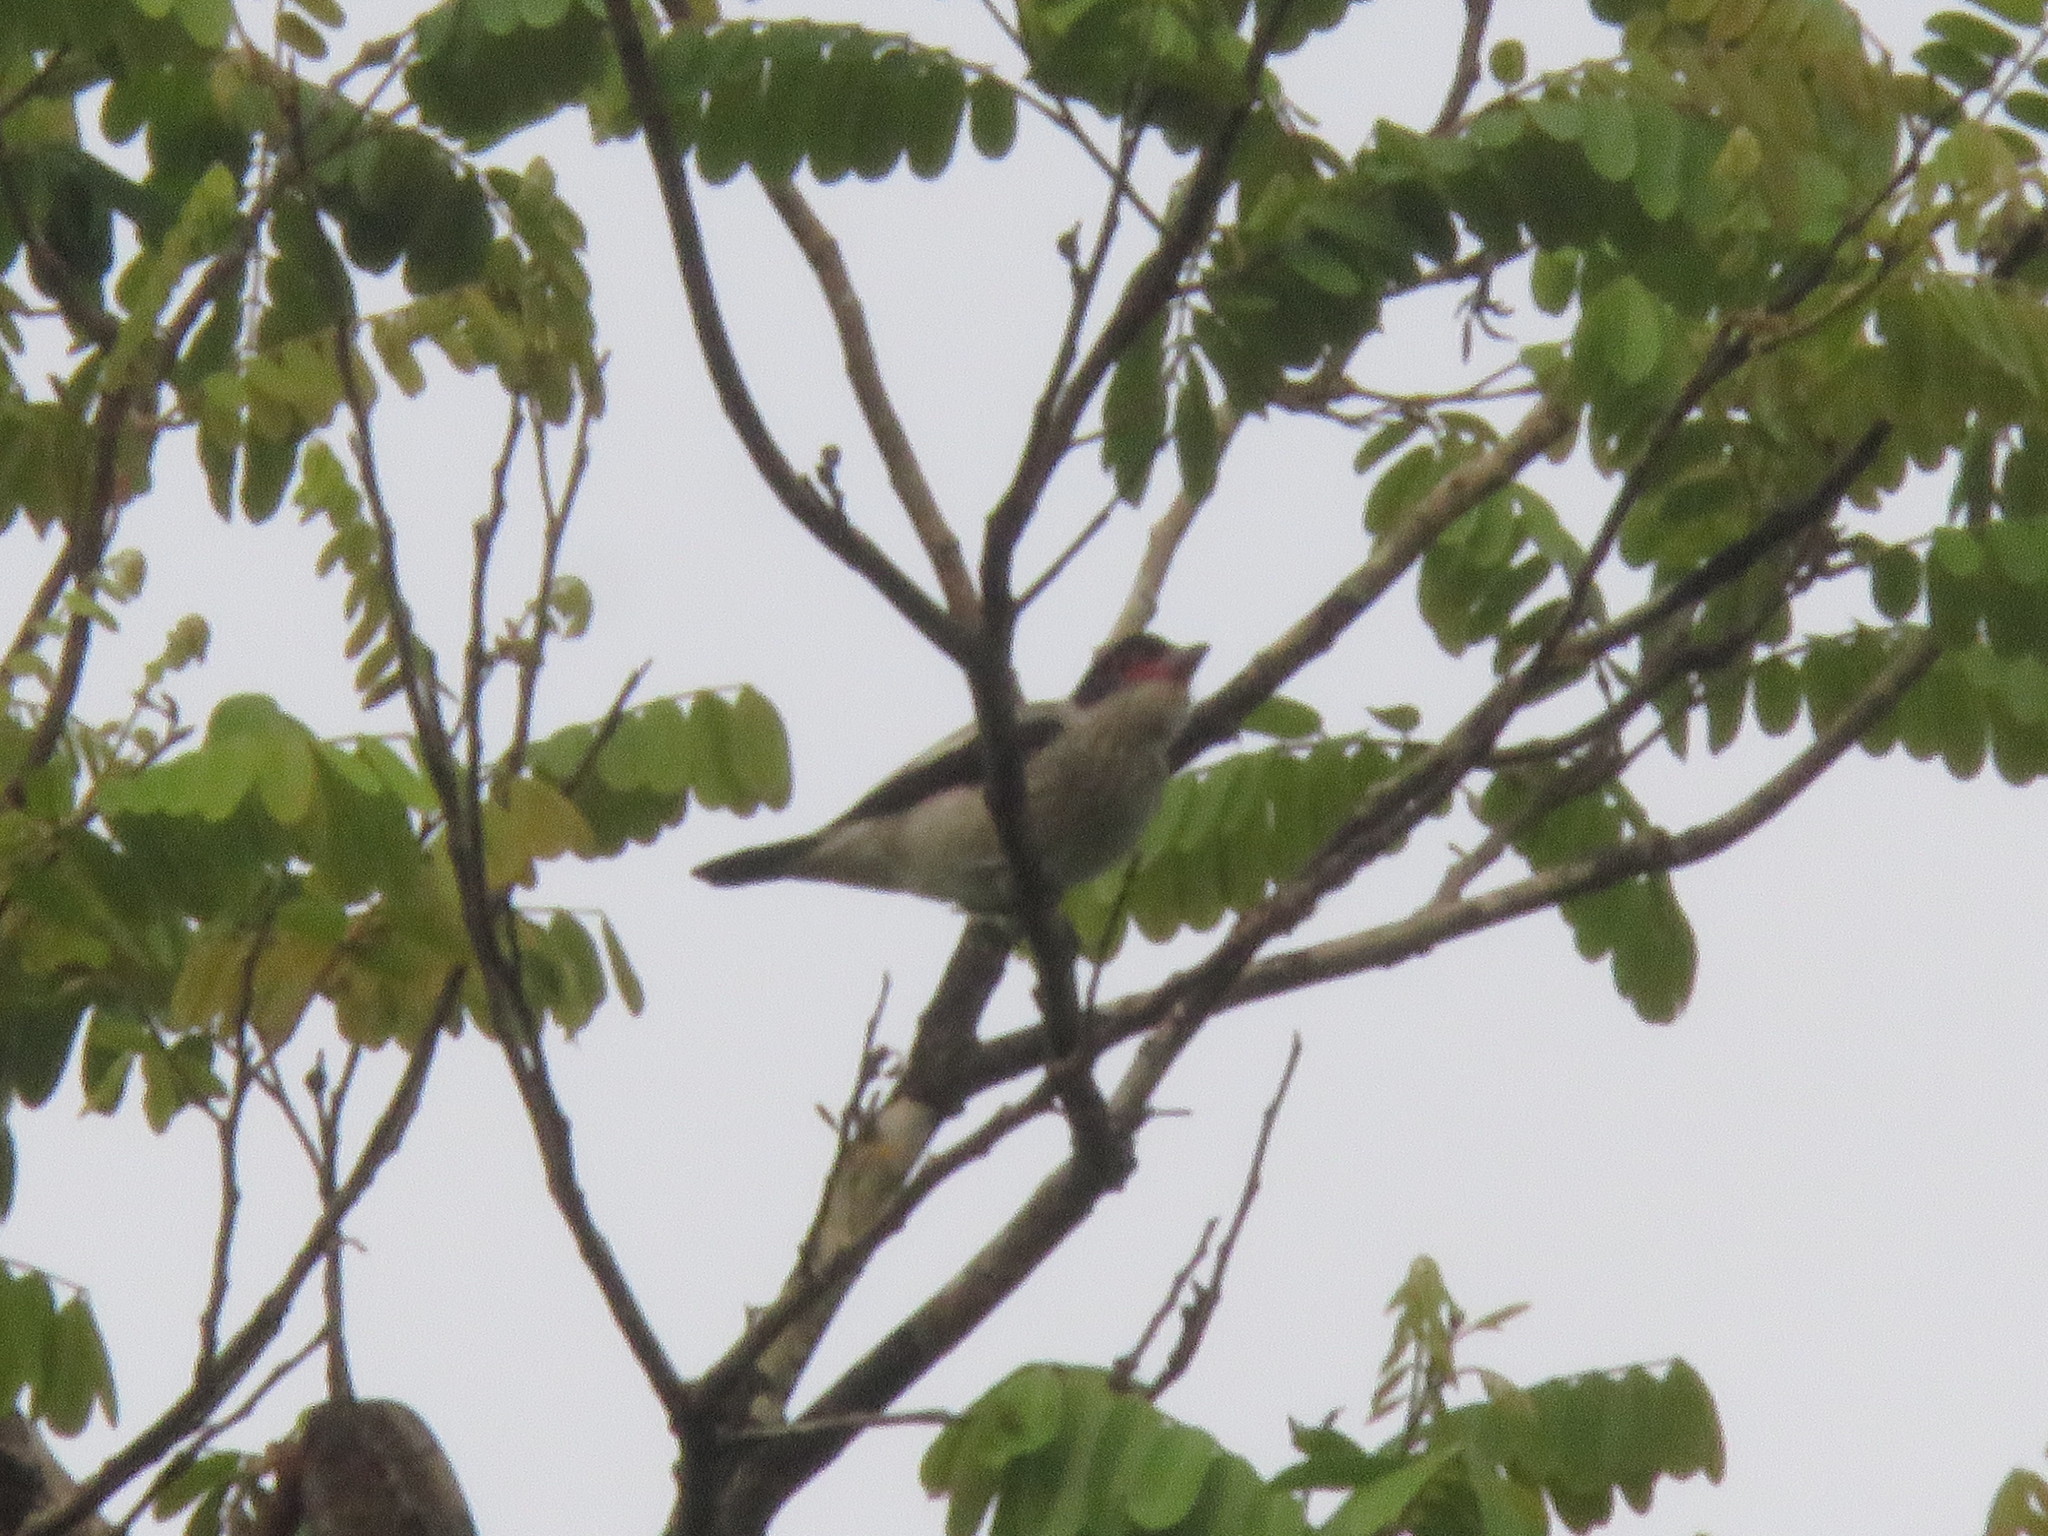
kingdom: Animalia
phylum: Chordata
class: Aves
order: Passeriformes
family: Cotingidae
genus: Tityra
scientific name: Tityra cayana
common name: Black-tailed tityra
